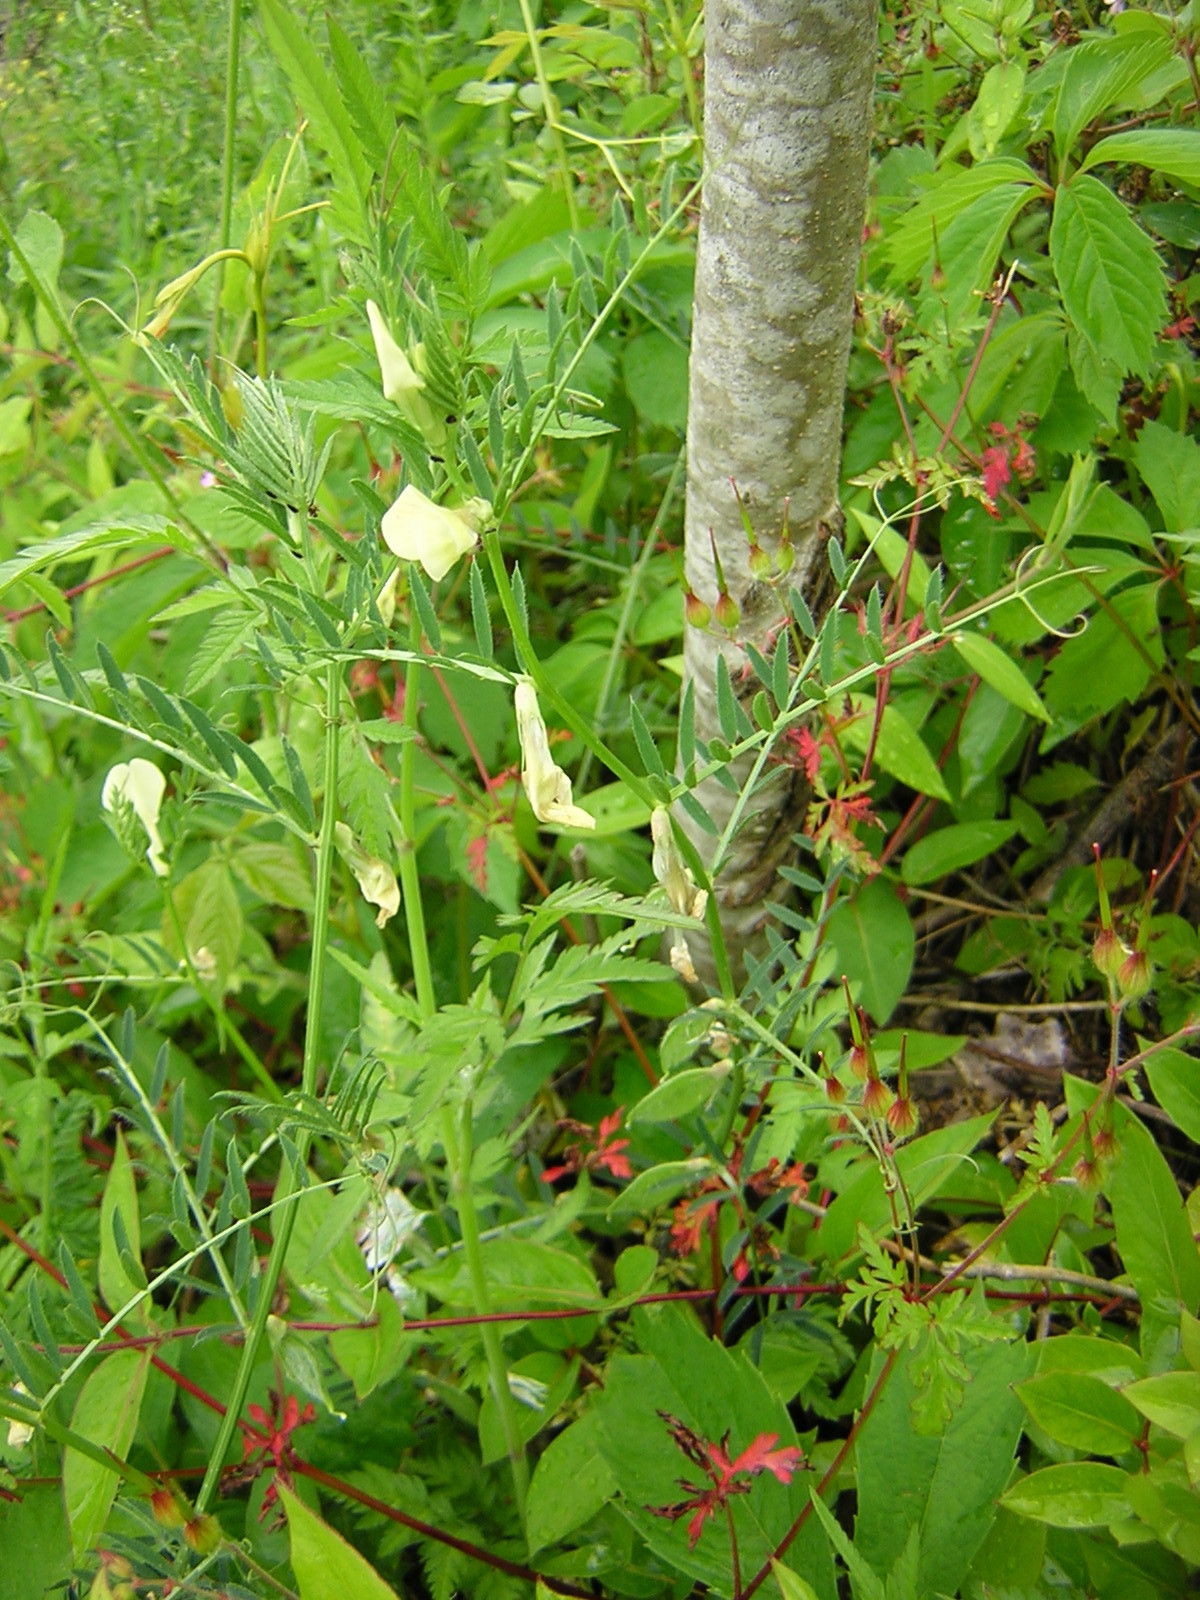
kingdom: Plantae
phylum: Tracheophyta
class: Magnoliopsida
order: Fabales
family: Fabaceae
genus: Vicia
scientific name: Vicia lutea
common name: Smooth yellow vetch
